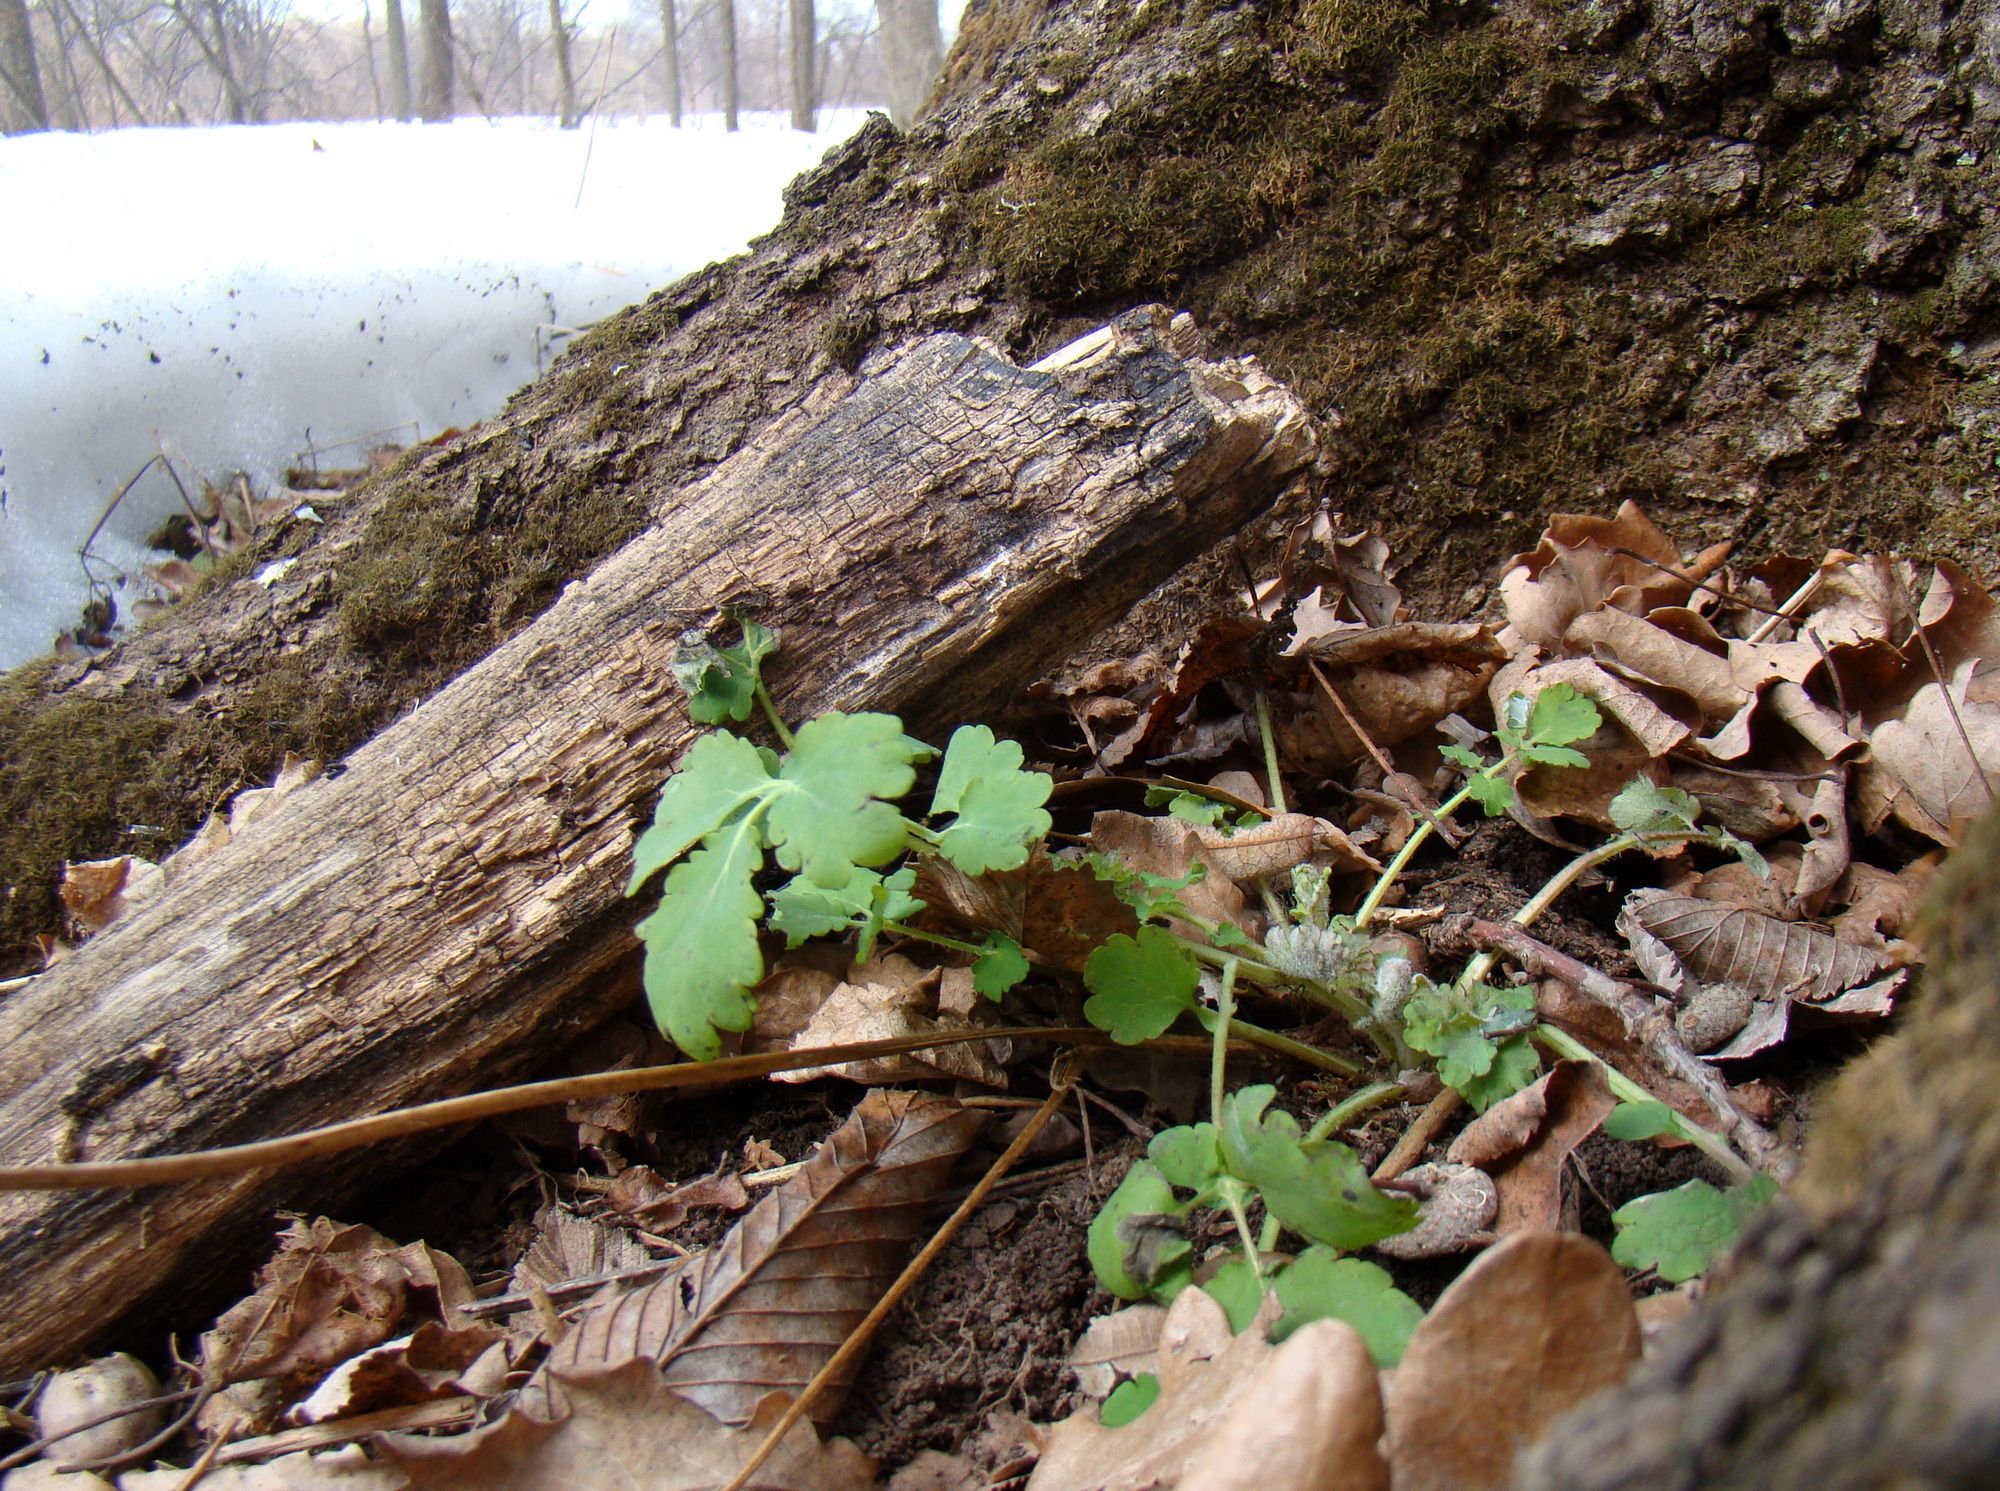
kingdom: Plantae
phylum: Tracheophyta
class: Magnoliopsida
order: Ranunculales
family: Papaveraceae
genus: Chelidonium
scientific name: Chelidonium majus
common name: Greater celandine
